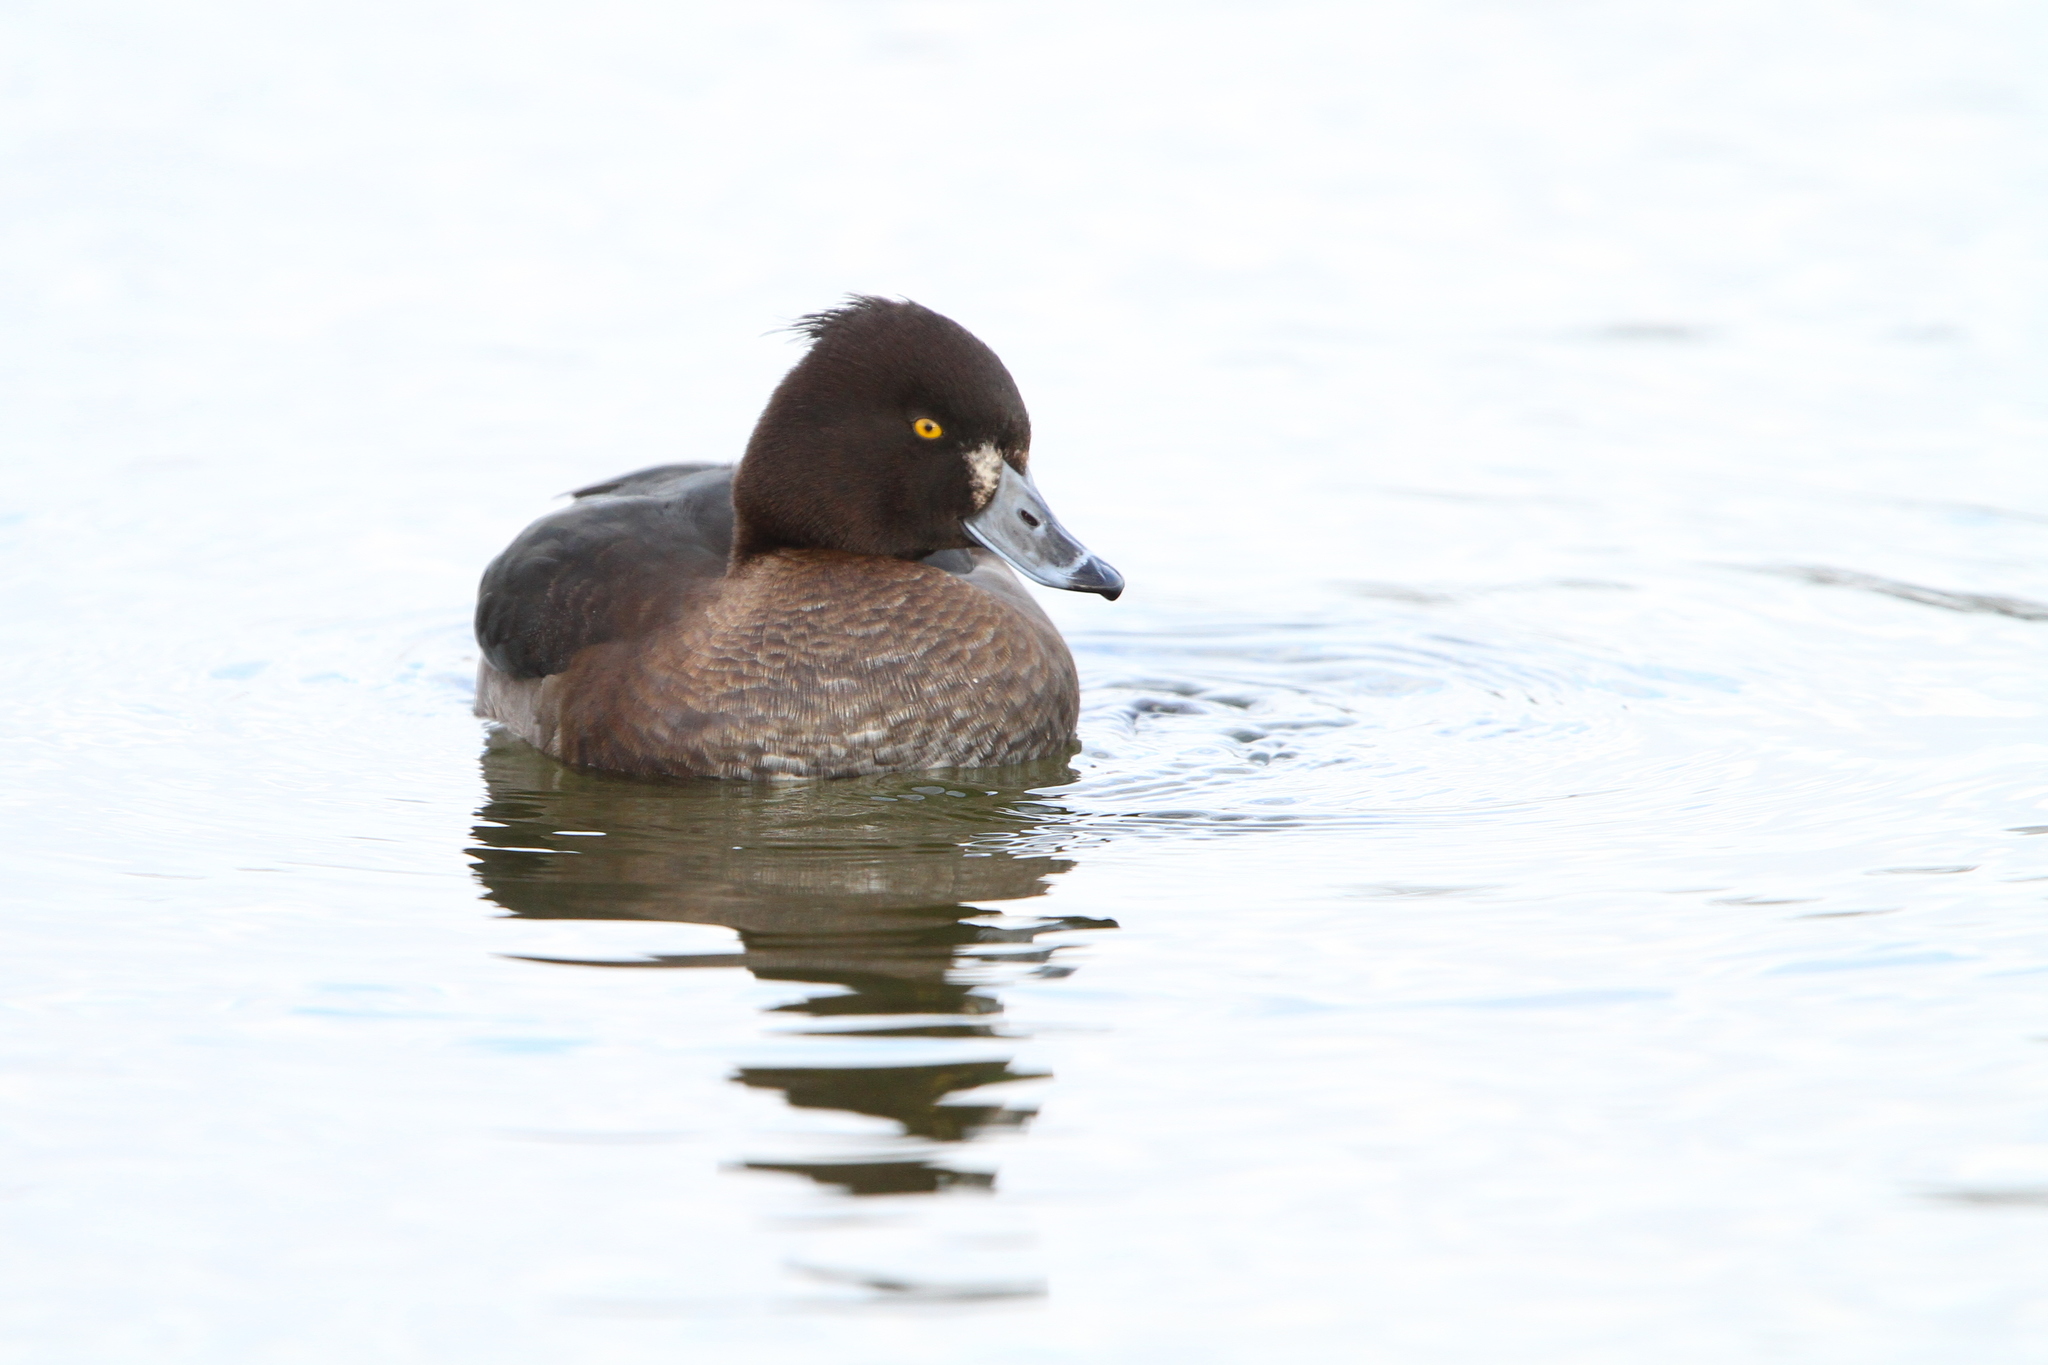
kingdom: Animalia
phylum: Chordata
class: Aves
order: Anseriformes
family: Anatidae
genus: Aythya
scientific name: Aythya fuligula
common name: Tufted duck
